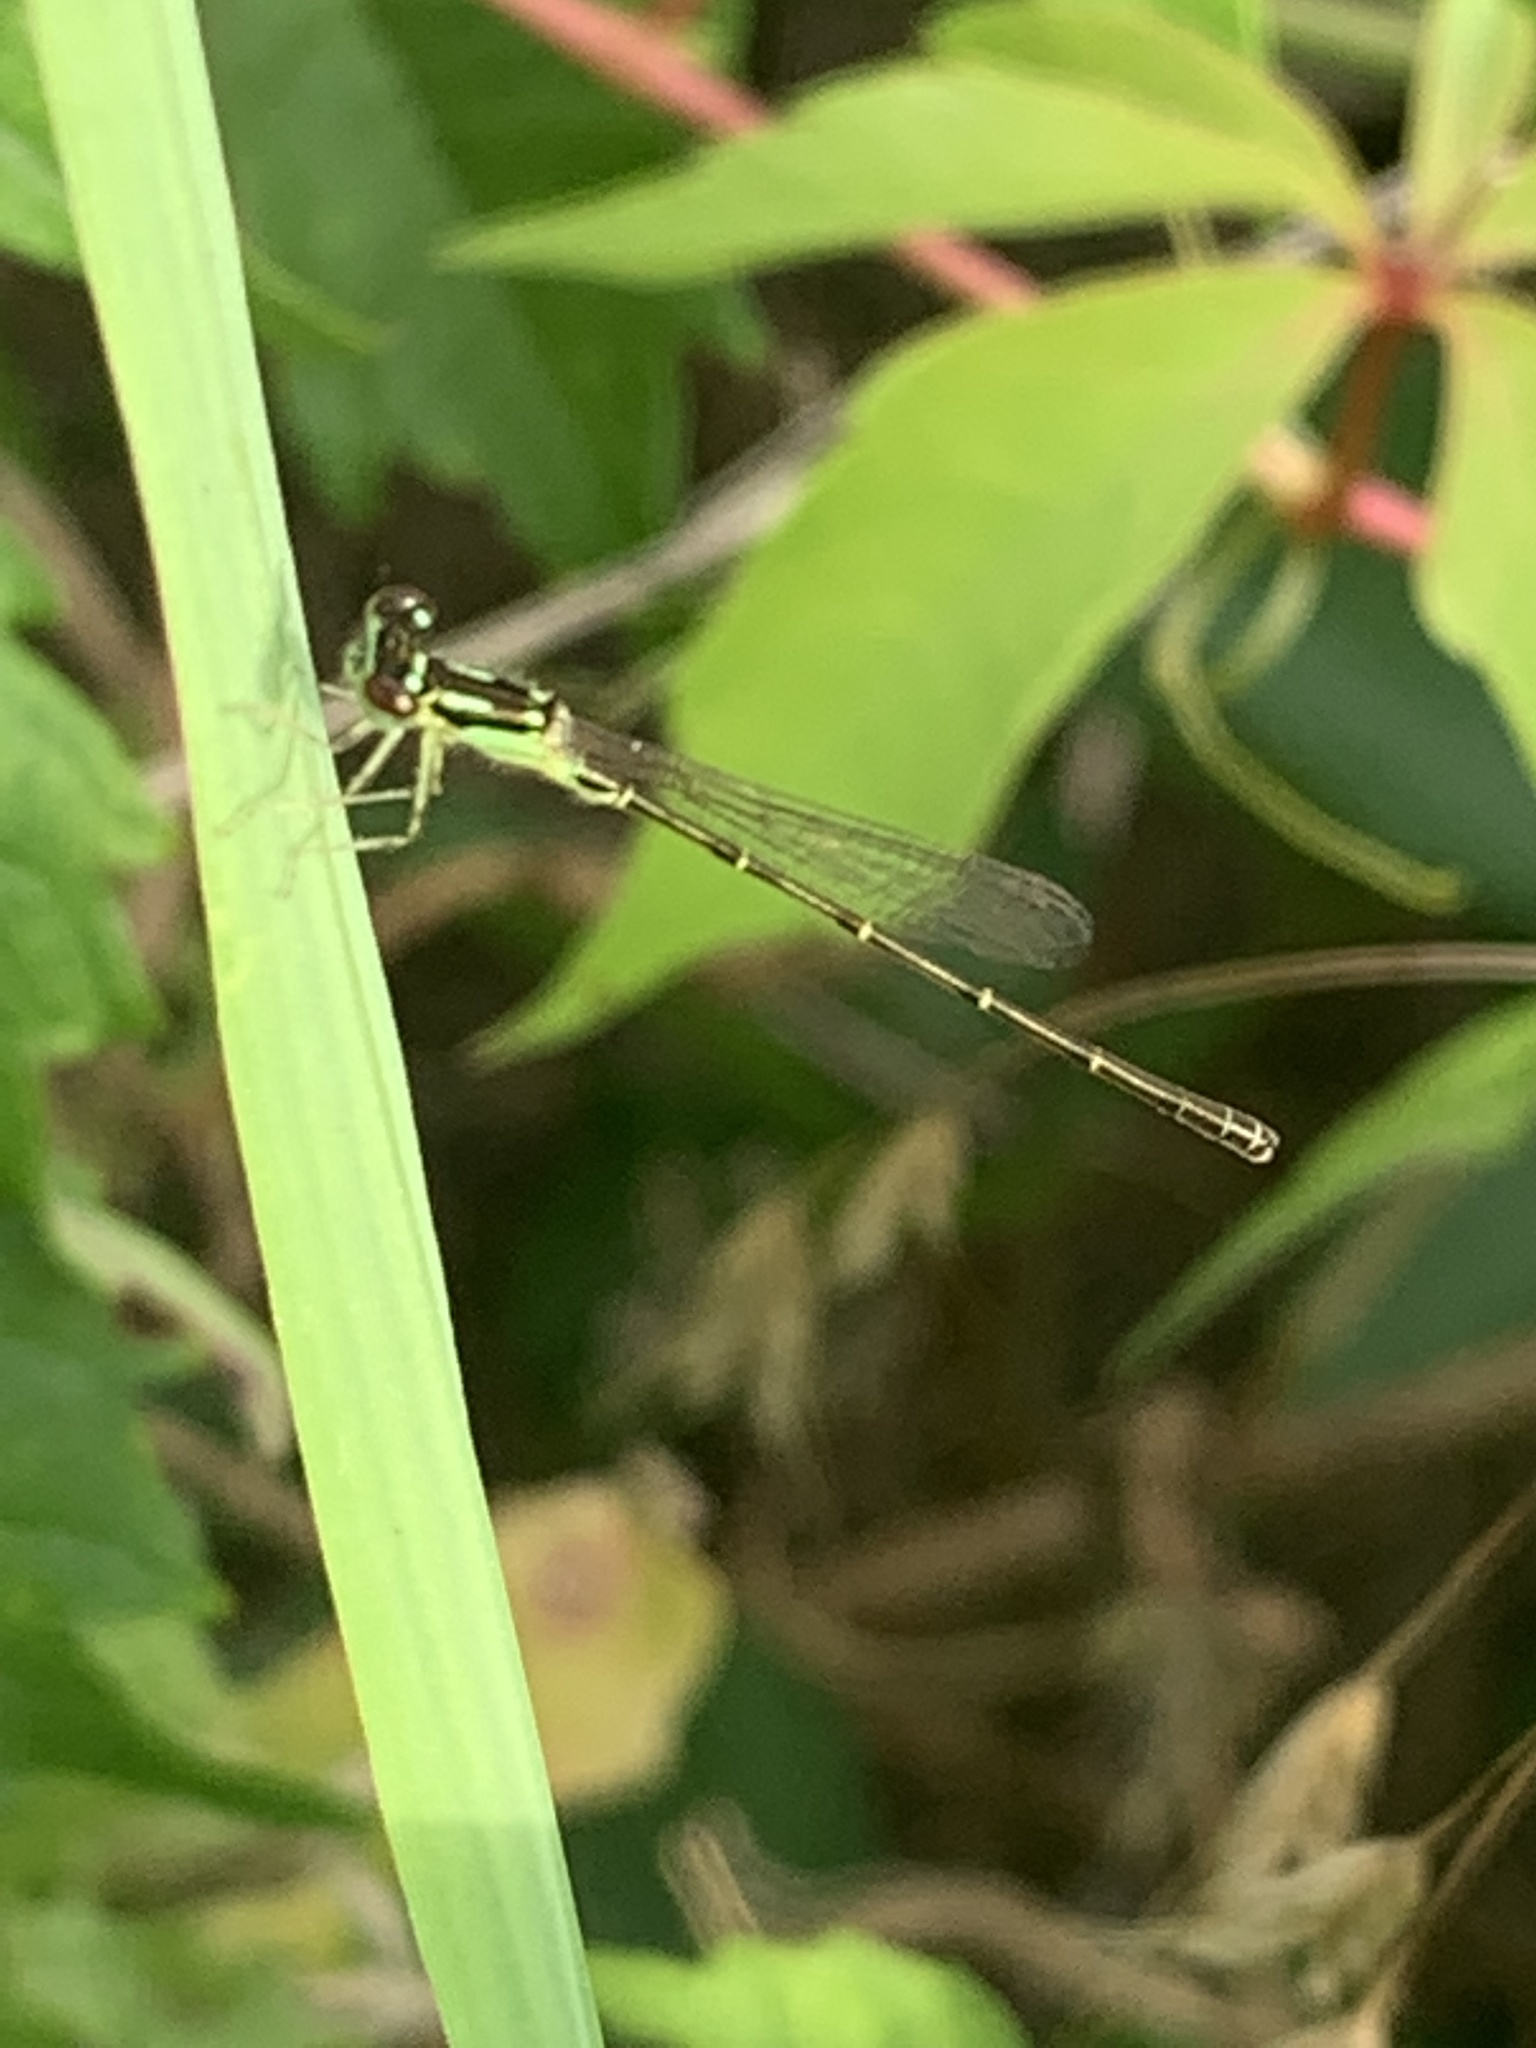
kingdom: Animalia
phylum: Arthropoda
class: Insecta
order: Odonata
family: Coenagrionidae
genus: Ischnura
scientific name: Ischnura posita
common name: Fragile forktail
